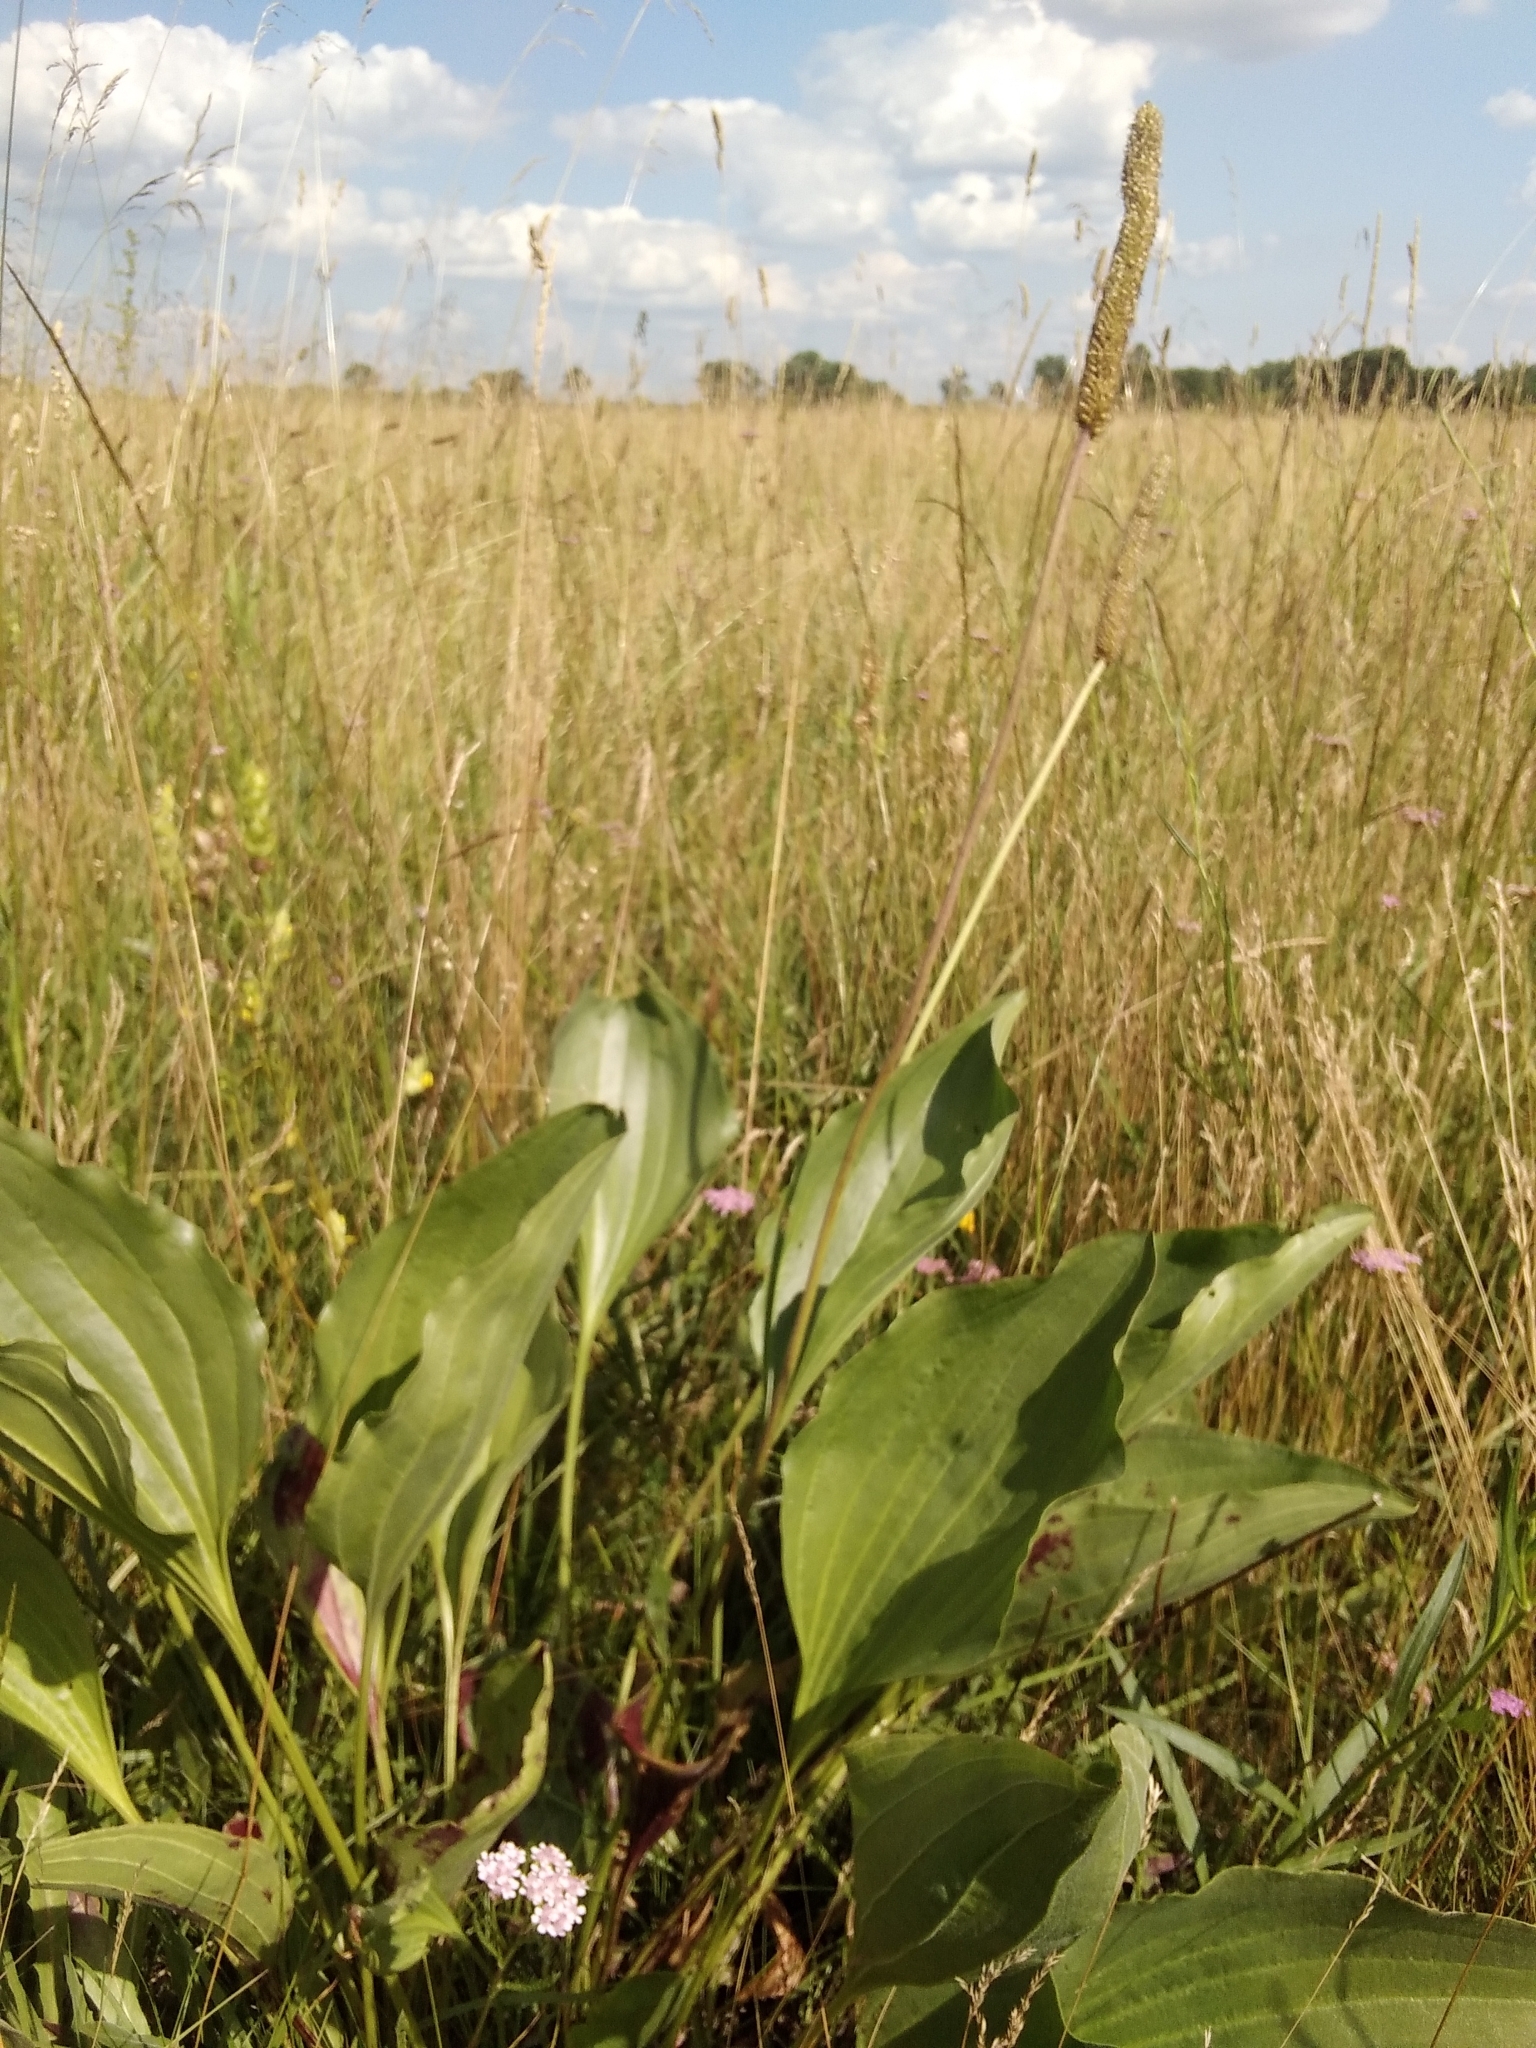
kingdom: Plantae
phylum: Tracheophyta
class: Magnoliopsida
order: Lamiales
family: Plantaginaceae
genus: Plantago
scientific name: Plantago maxima
